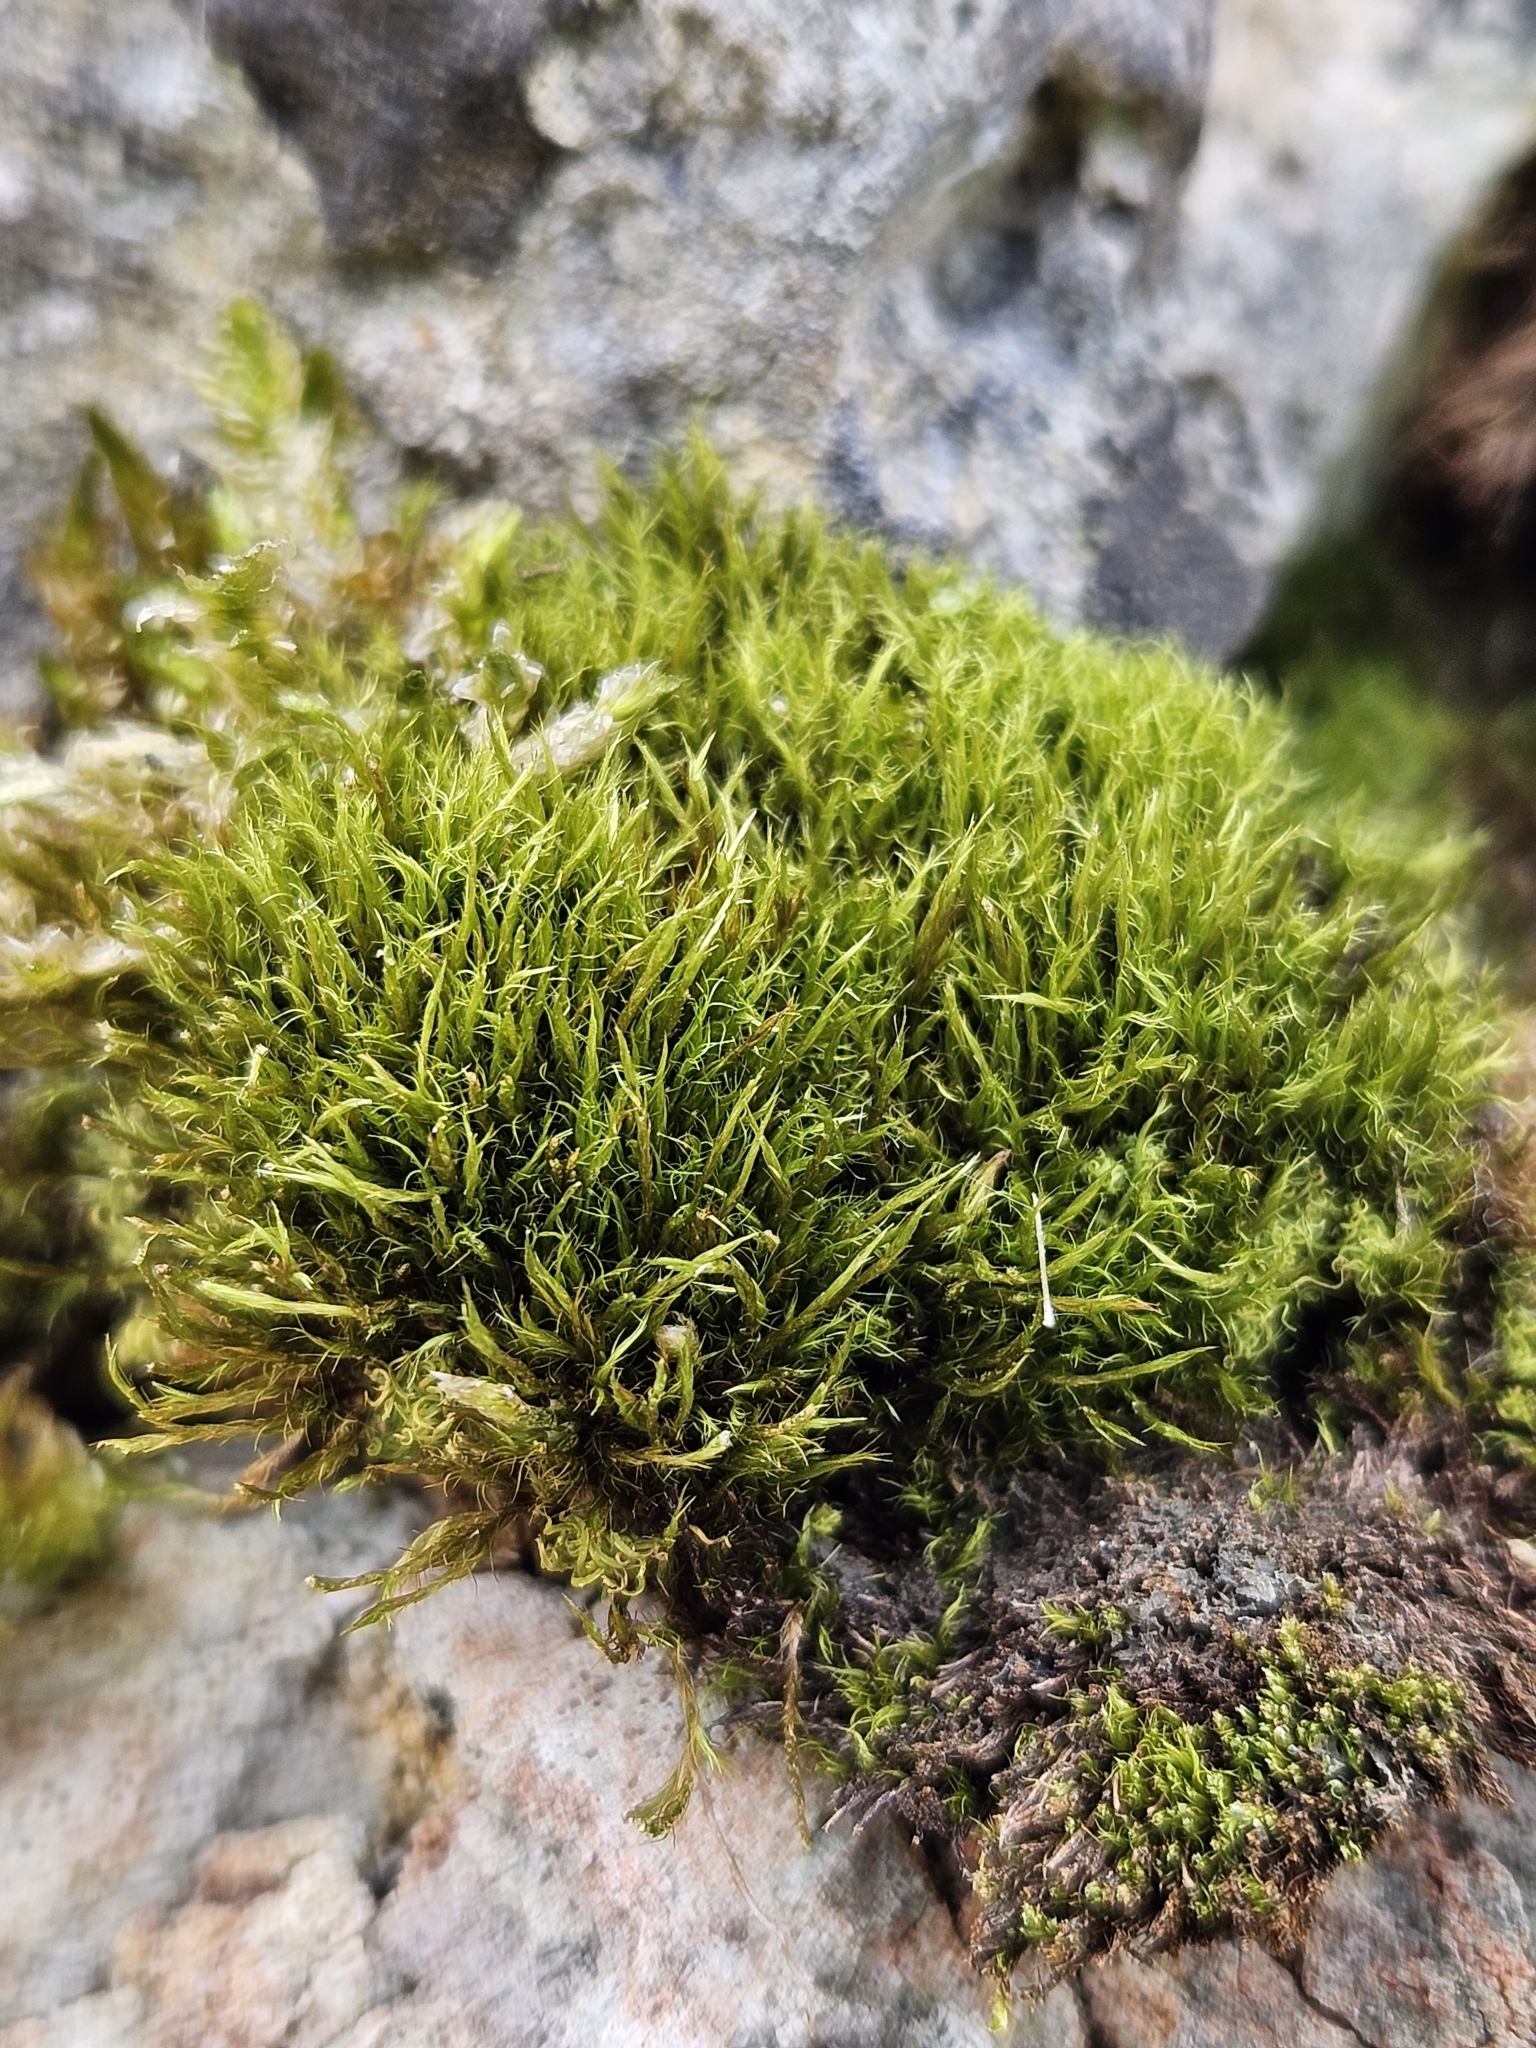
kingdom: Plantae
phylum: Bryophyta
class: Bryopsida
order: Scouleriales
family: Flexitrichaceae
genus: Flexitrichum
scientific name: Flexitrichum flexicaule
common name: Bendy ditrichum
